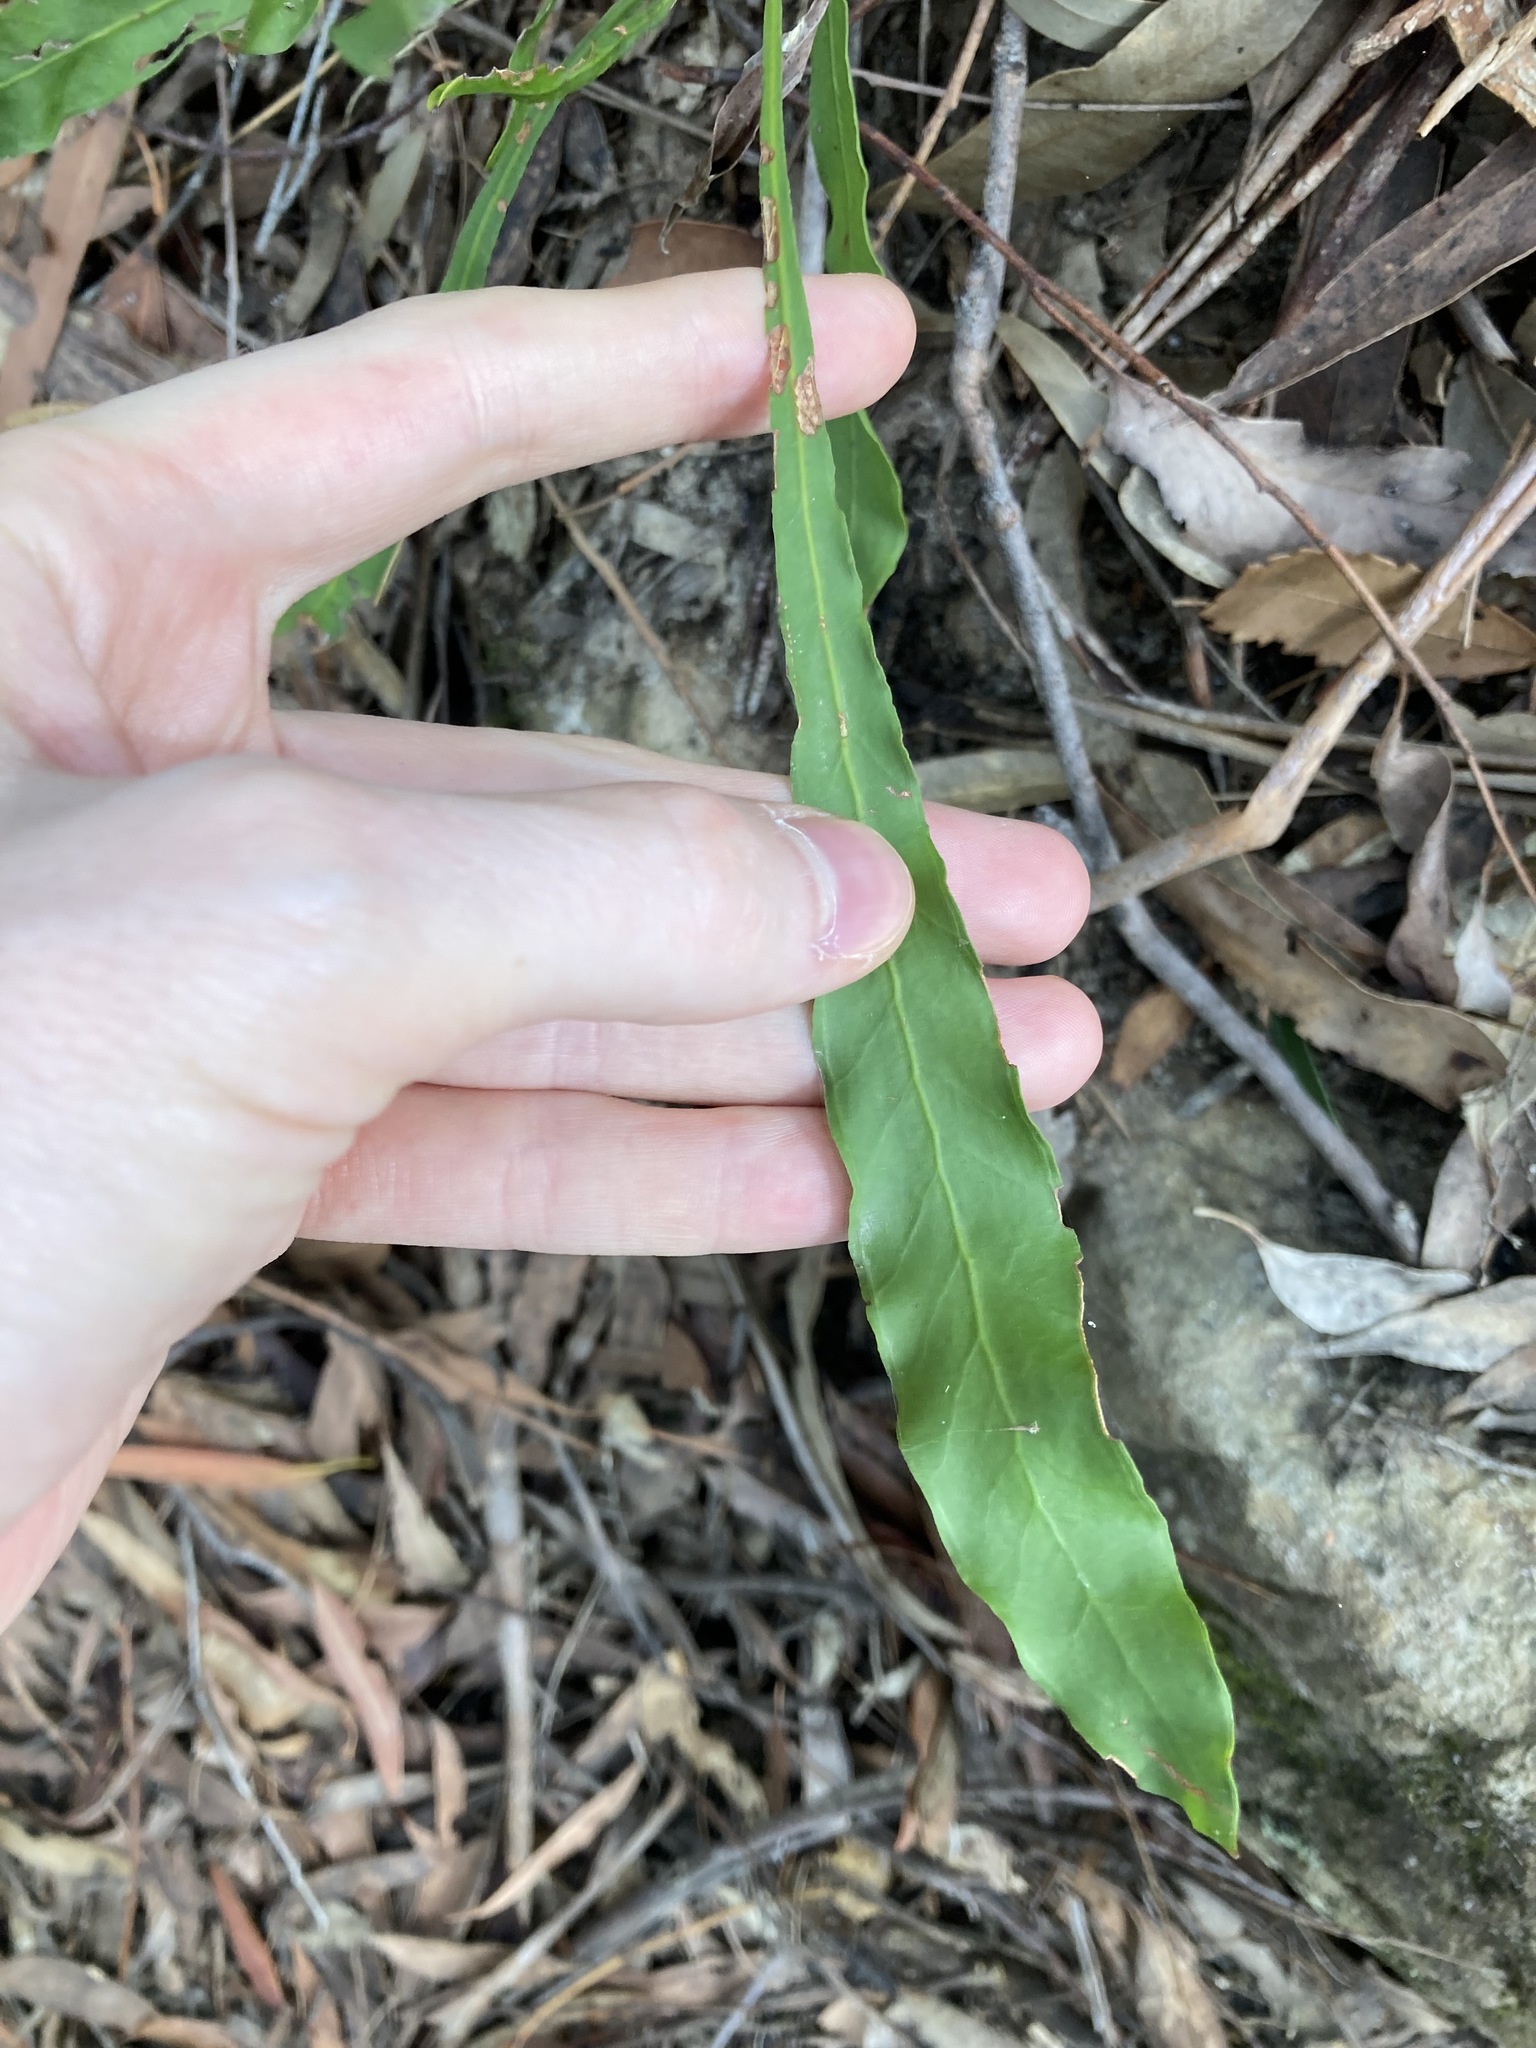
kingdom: Plantae
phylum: Tracheophyta
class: Magnoliopsida
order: Proteales
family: Proteaceae
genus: Conospermum
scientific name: Conospermum longifolium
